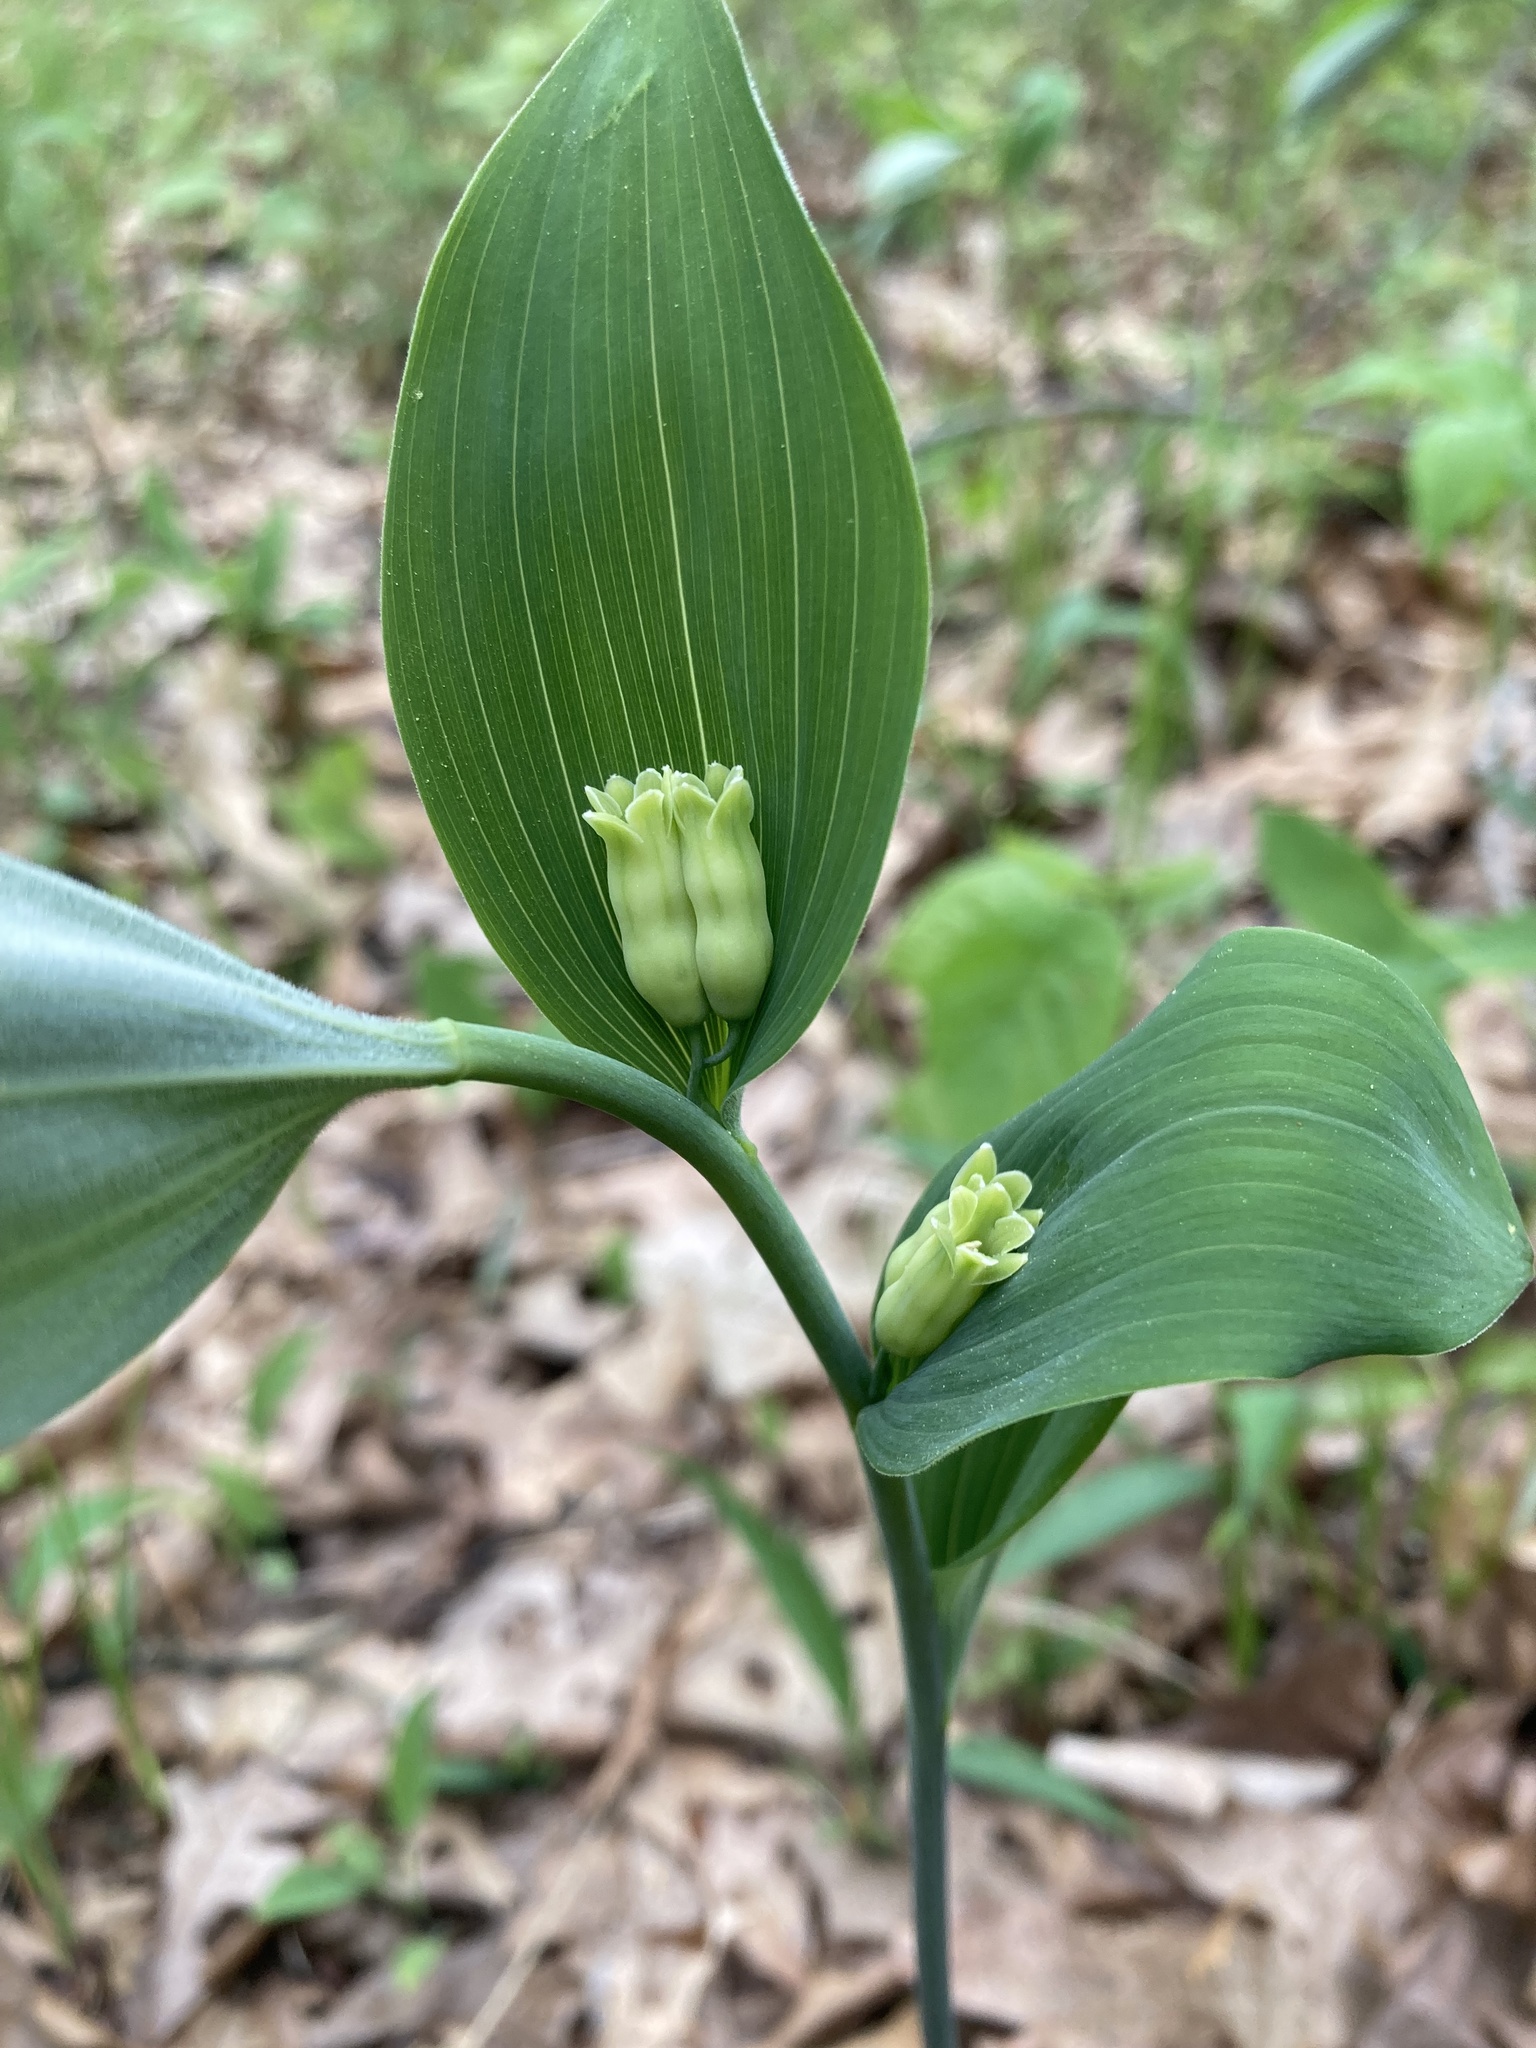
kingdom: Plantae
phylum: Tracheophyta
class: Liliopsida
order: Asparagales
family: Asparagaceae
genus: Polygonatum
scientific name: Polygonatum pubescens
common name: Downy solomon's seal
